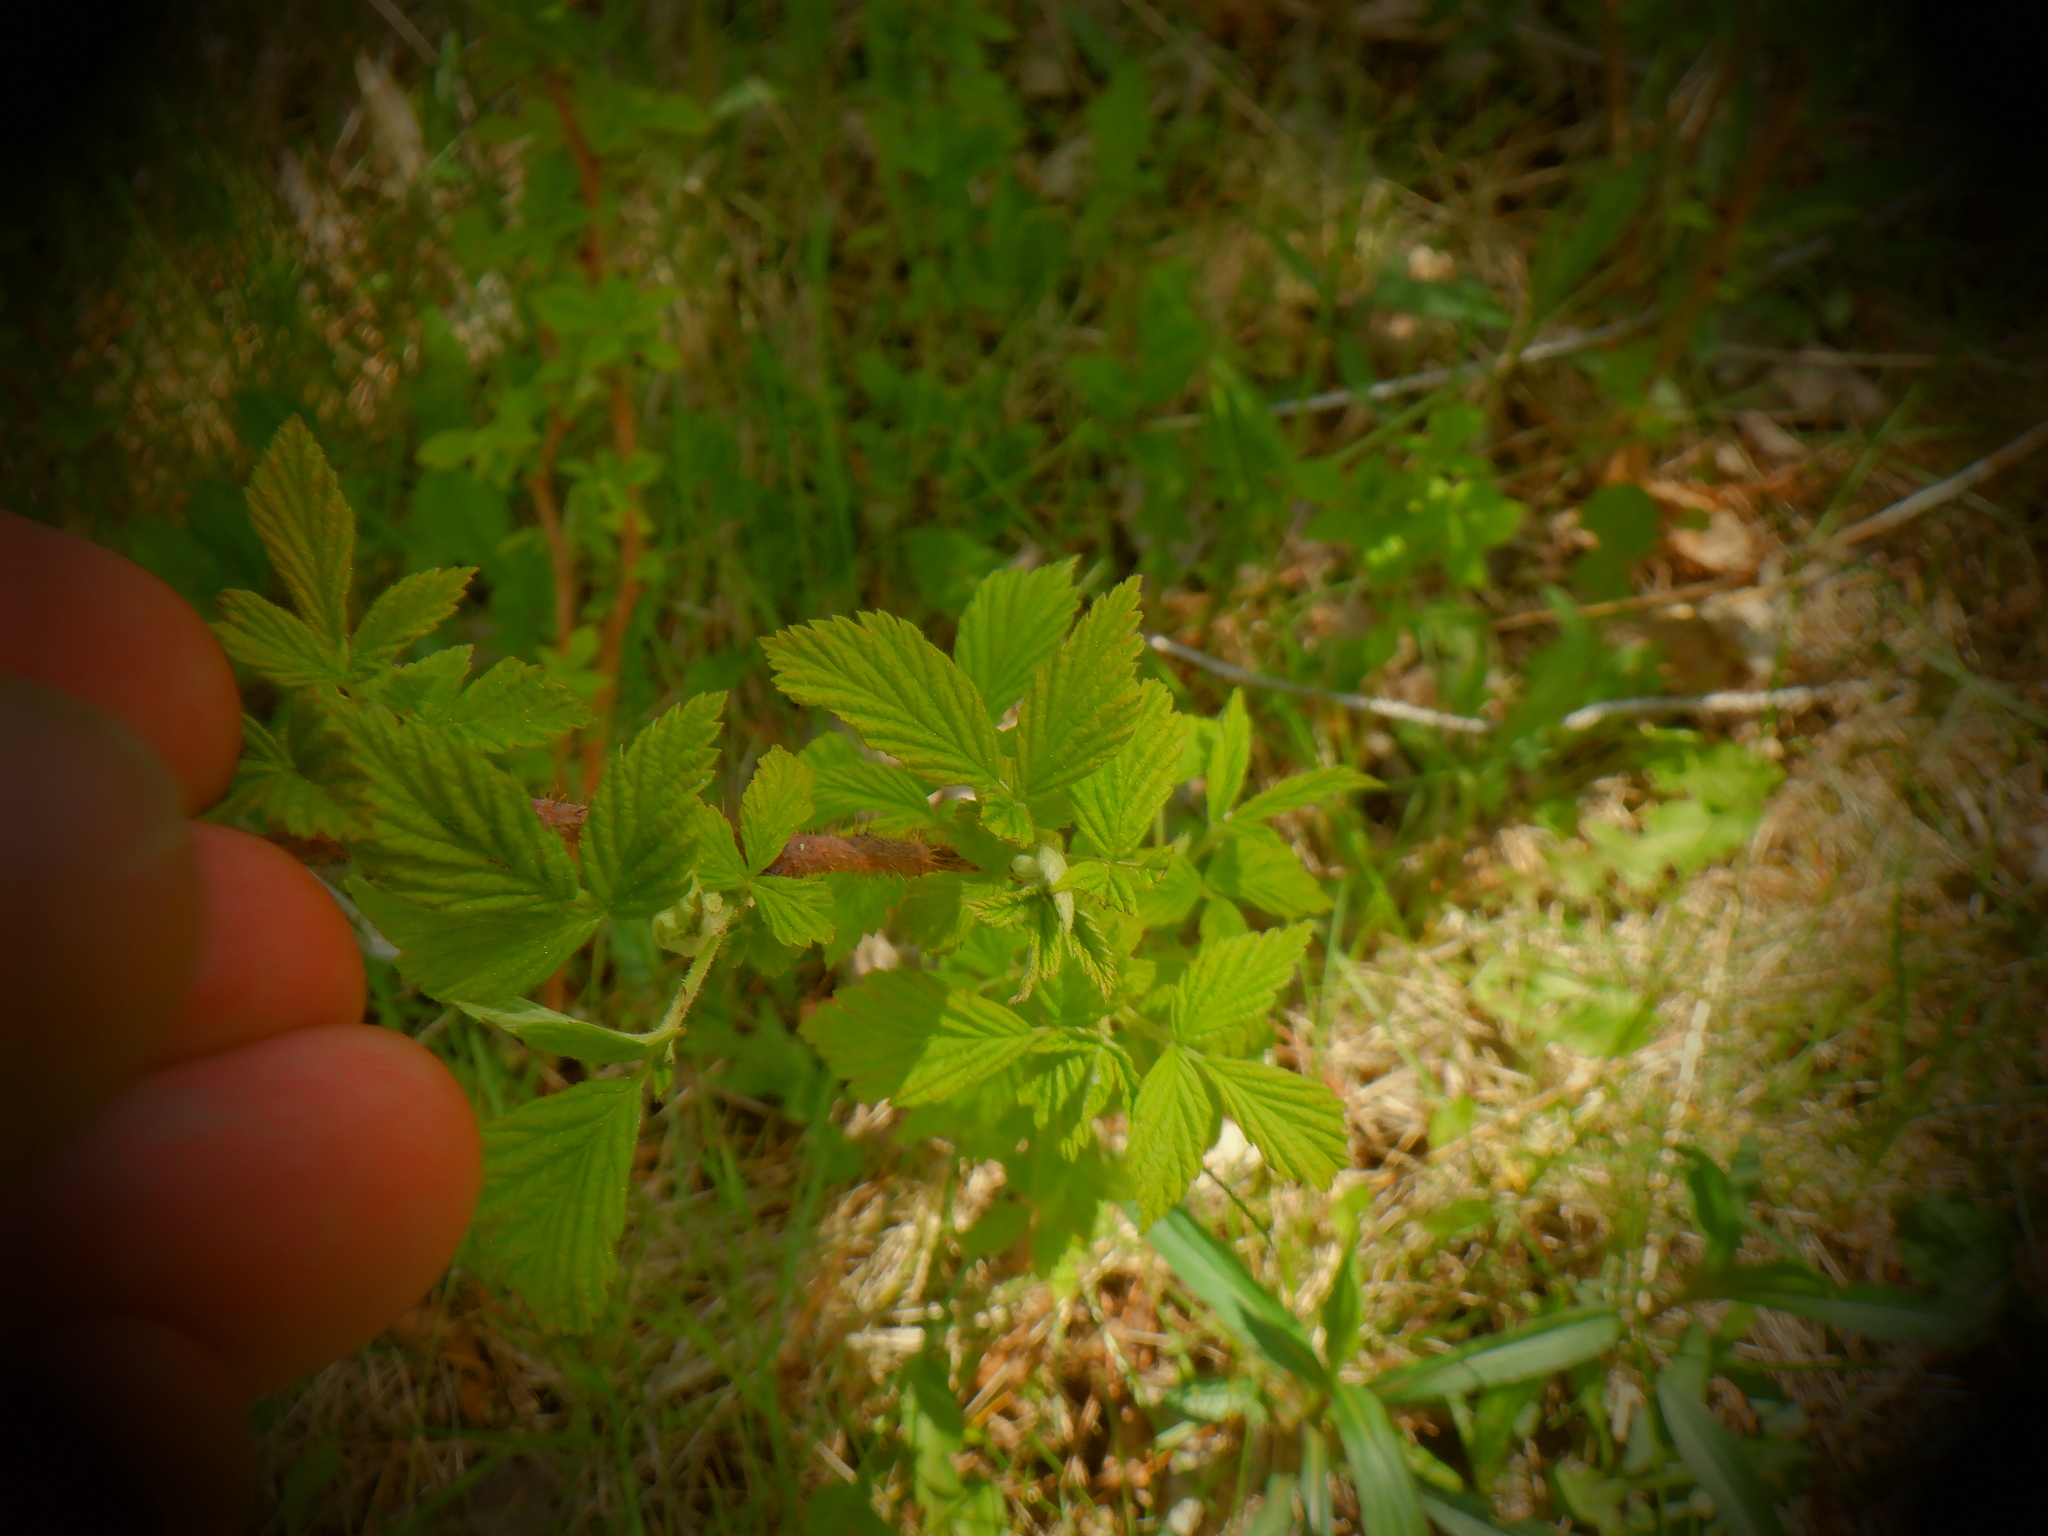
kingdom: Plantae
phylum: Tracheophyta
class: Magnoliopsida
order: Rosales
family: Rosaceae
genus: Rubus
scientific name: Rubus idaeus
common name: Raspberry
